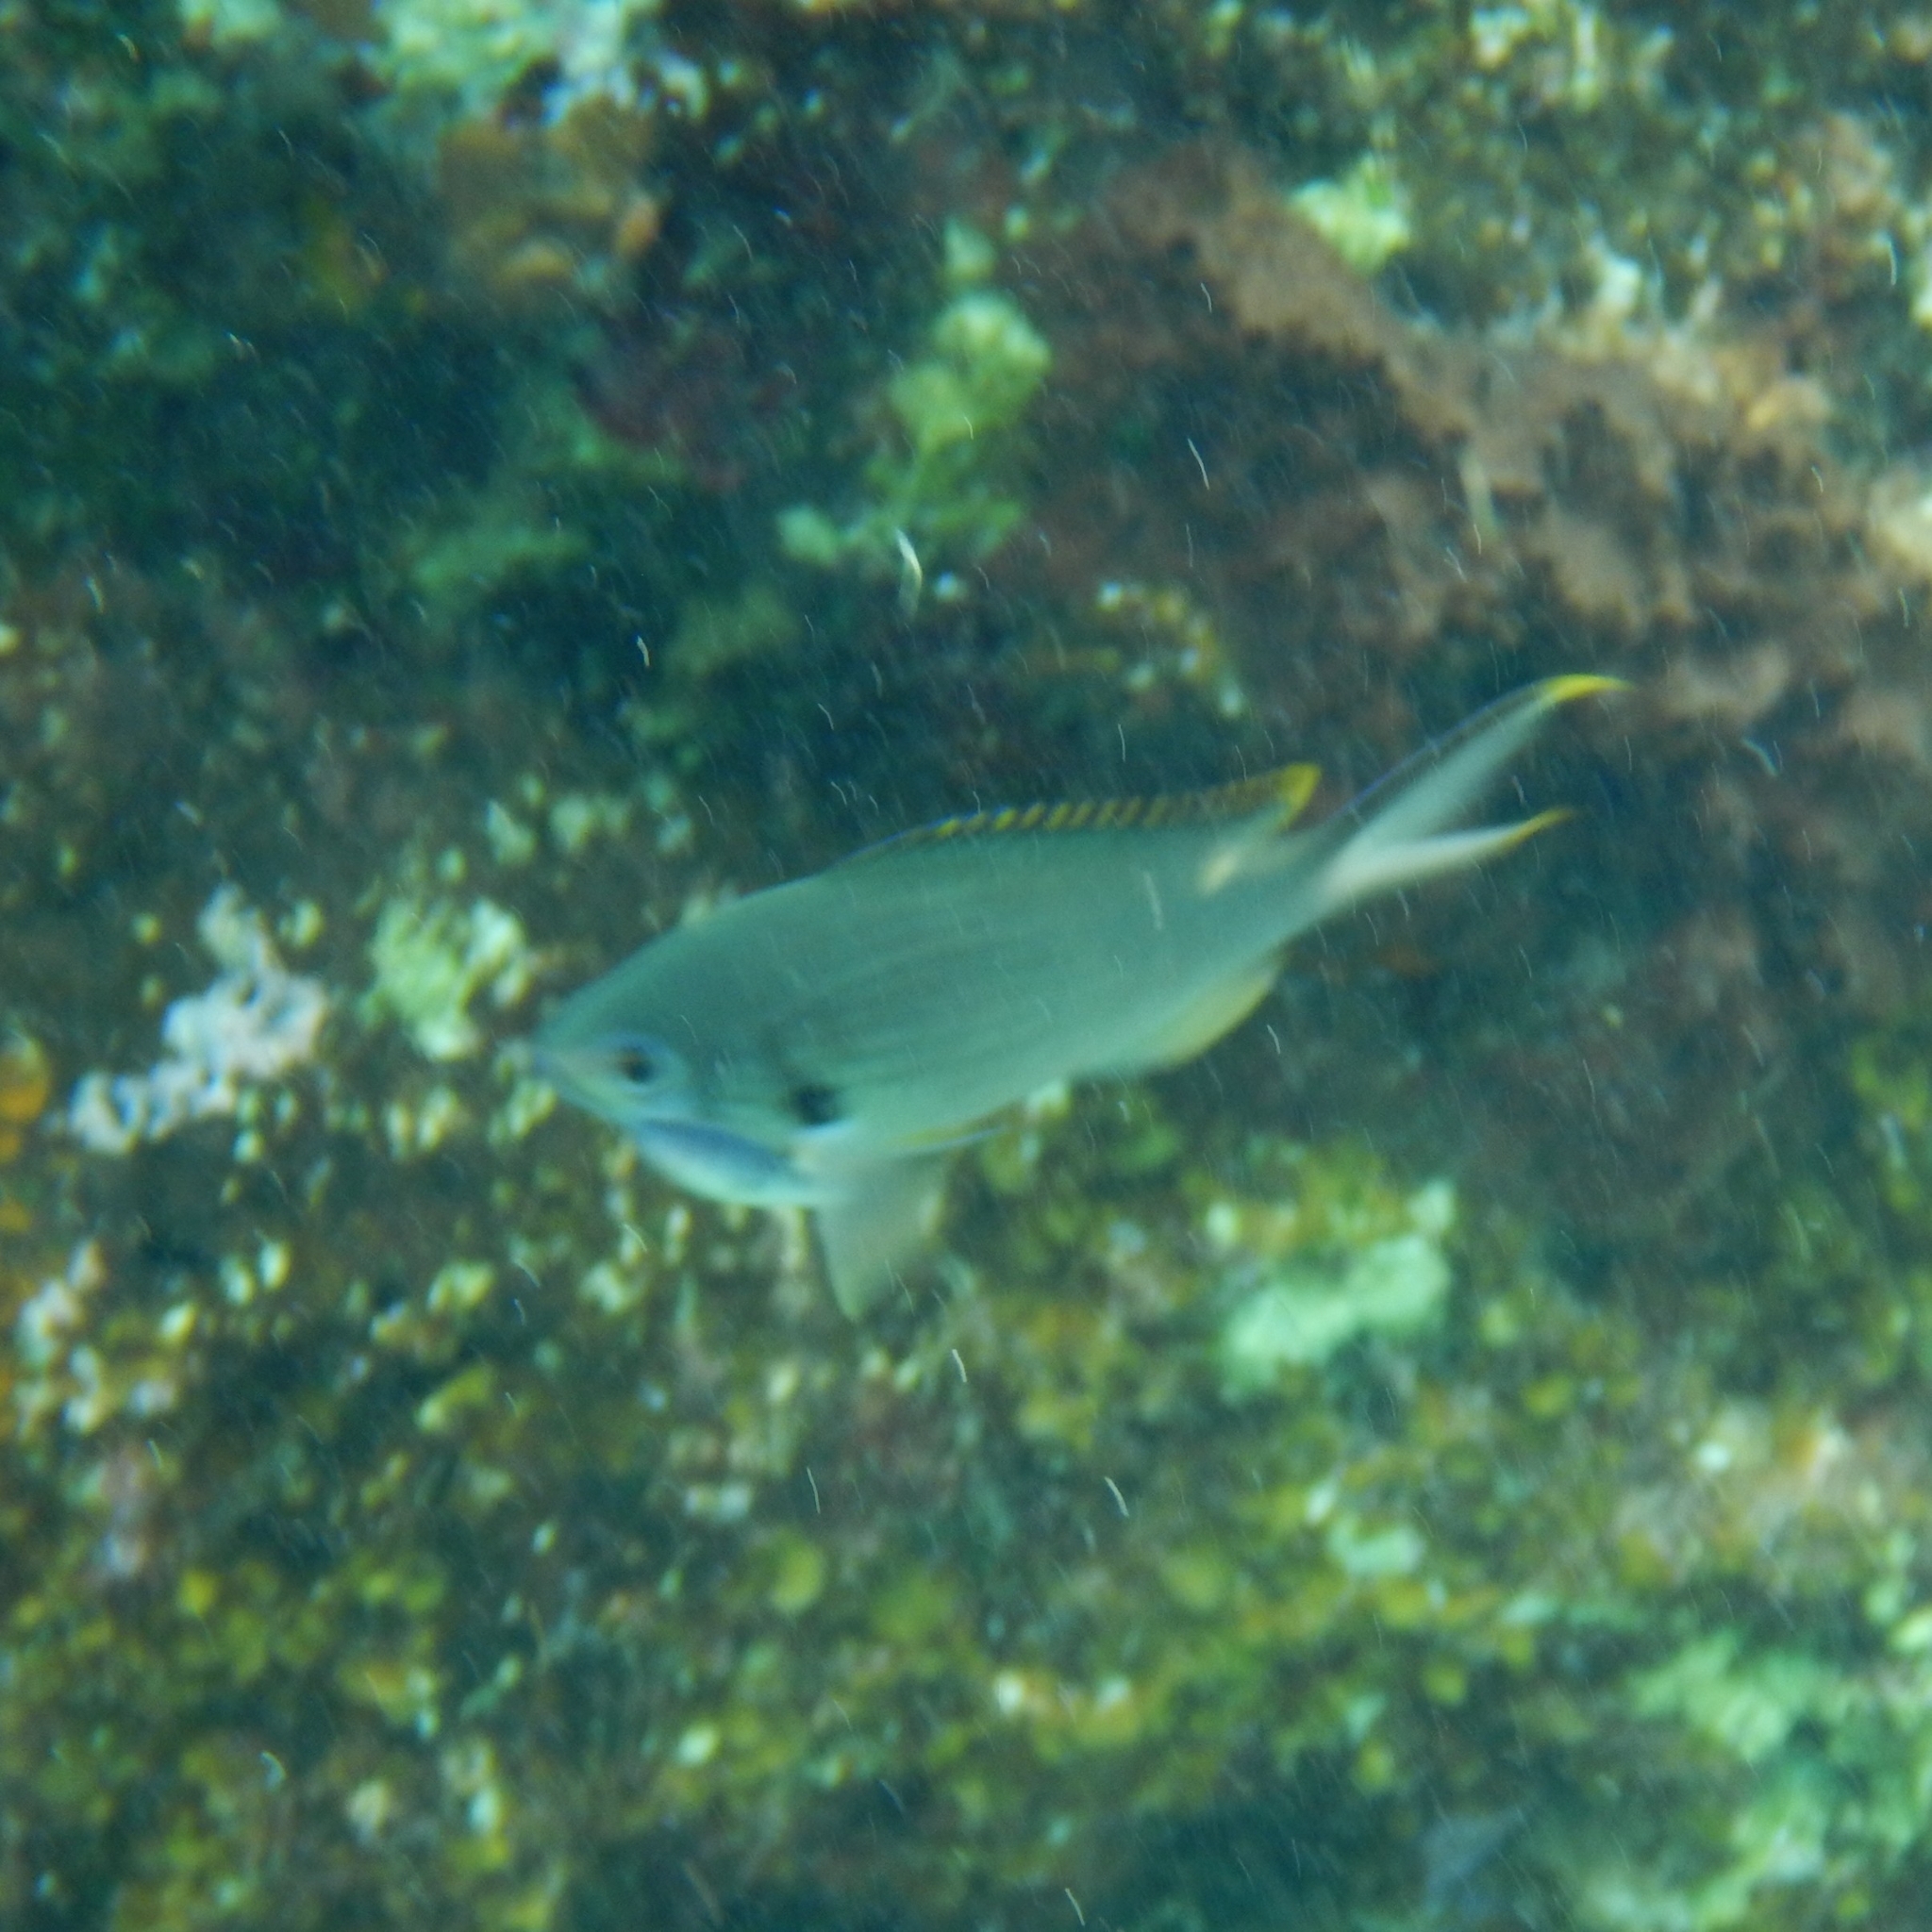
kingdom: Animalia
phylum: Chordata
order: Perciformes
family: Pomacentridae
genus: Chromis
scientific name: Chromis multilineata
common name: Brown chromis
